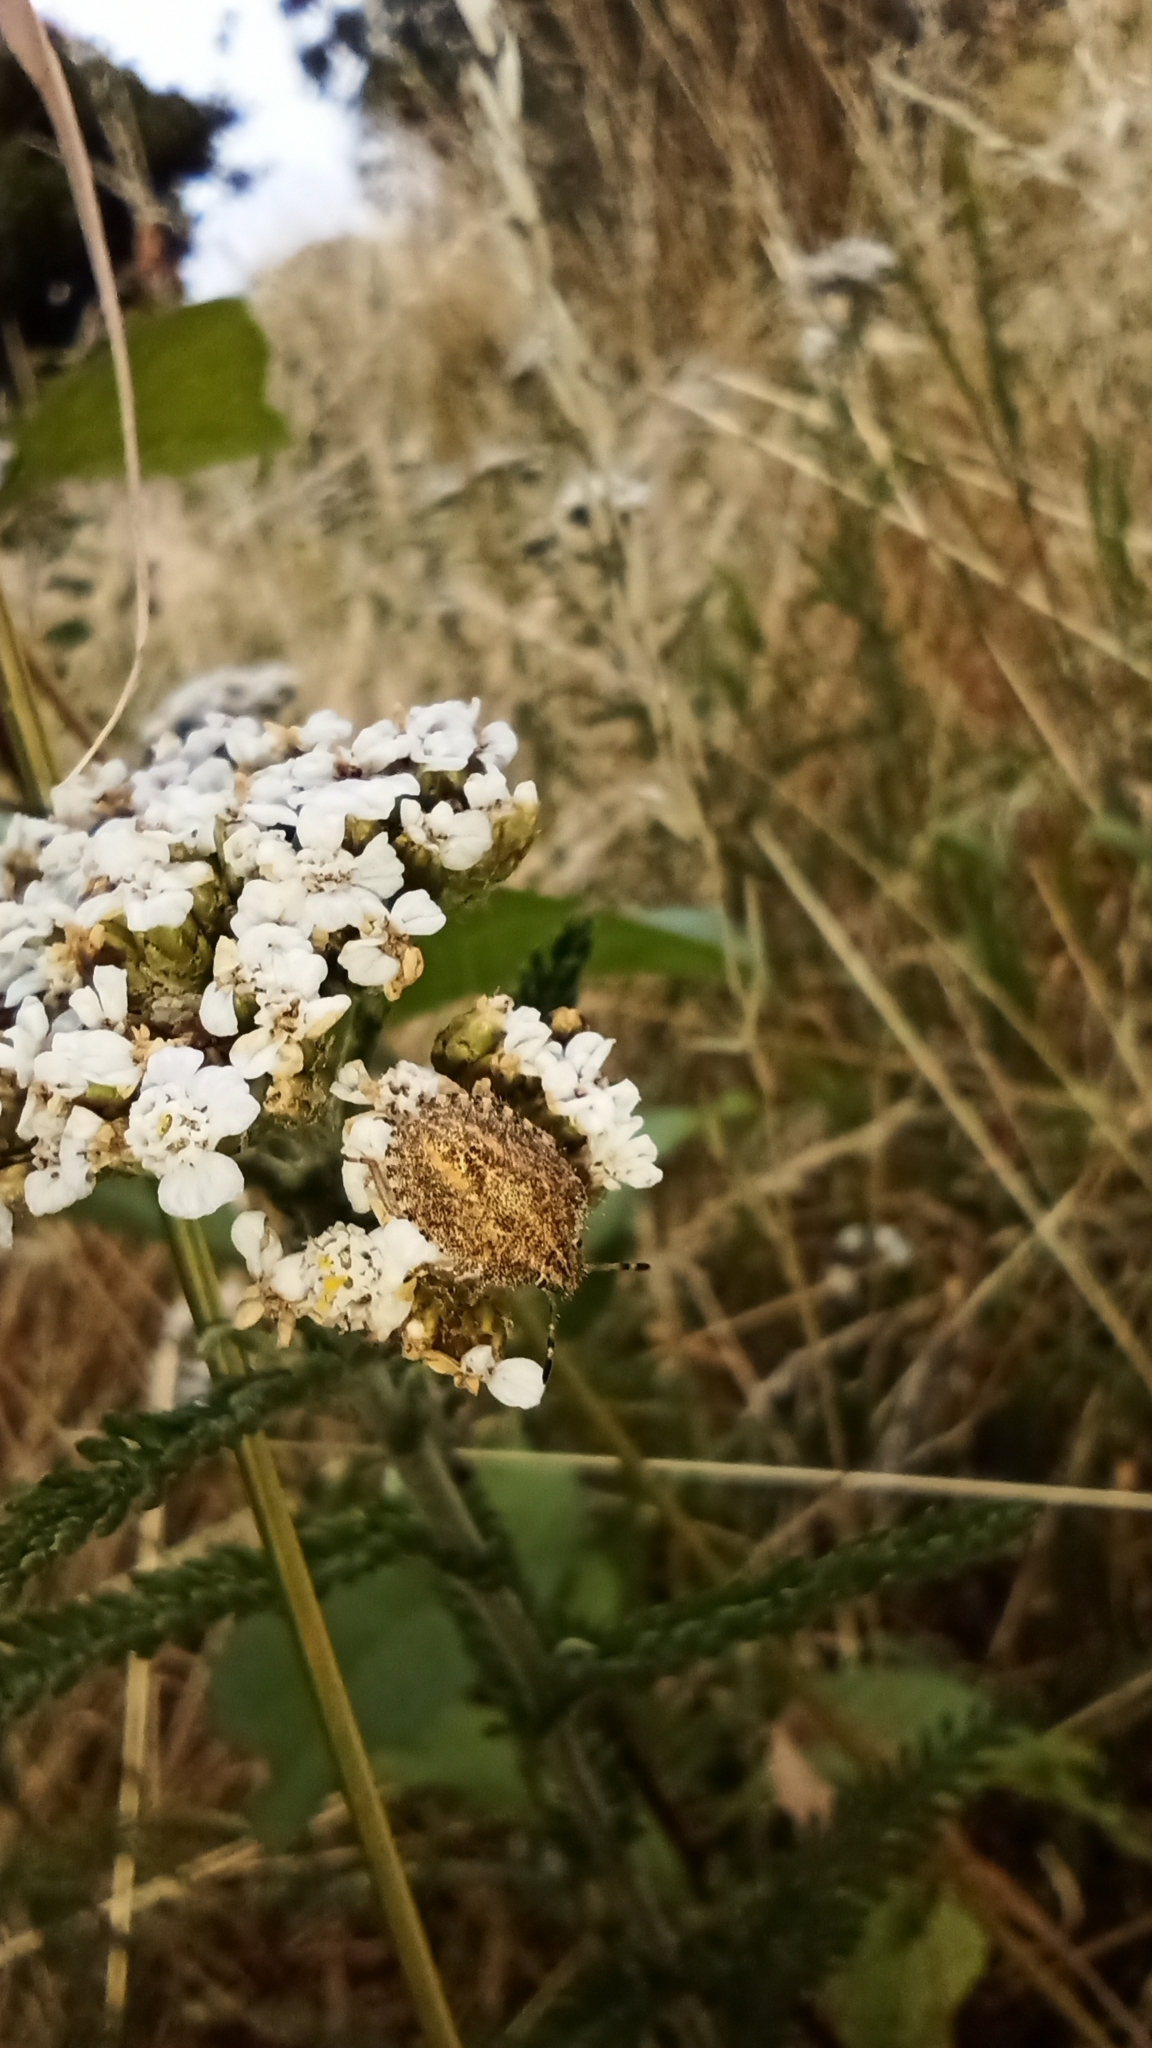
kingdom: Animalia
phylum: Arthropoda
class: Insecta
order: Hemiptera
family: Pentatomidae
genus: Dolycoris
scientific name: Dolycoris baccarum
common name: Sloe bug
